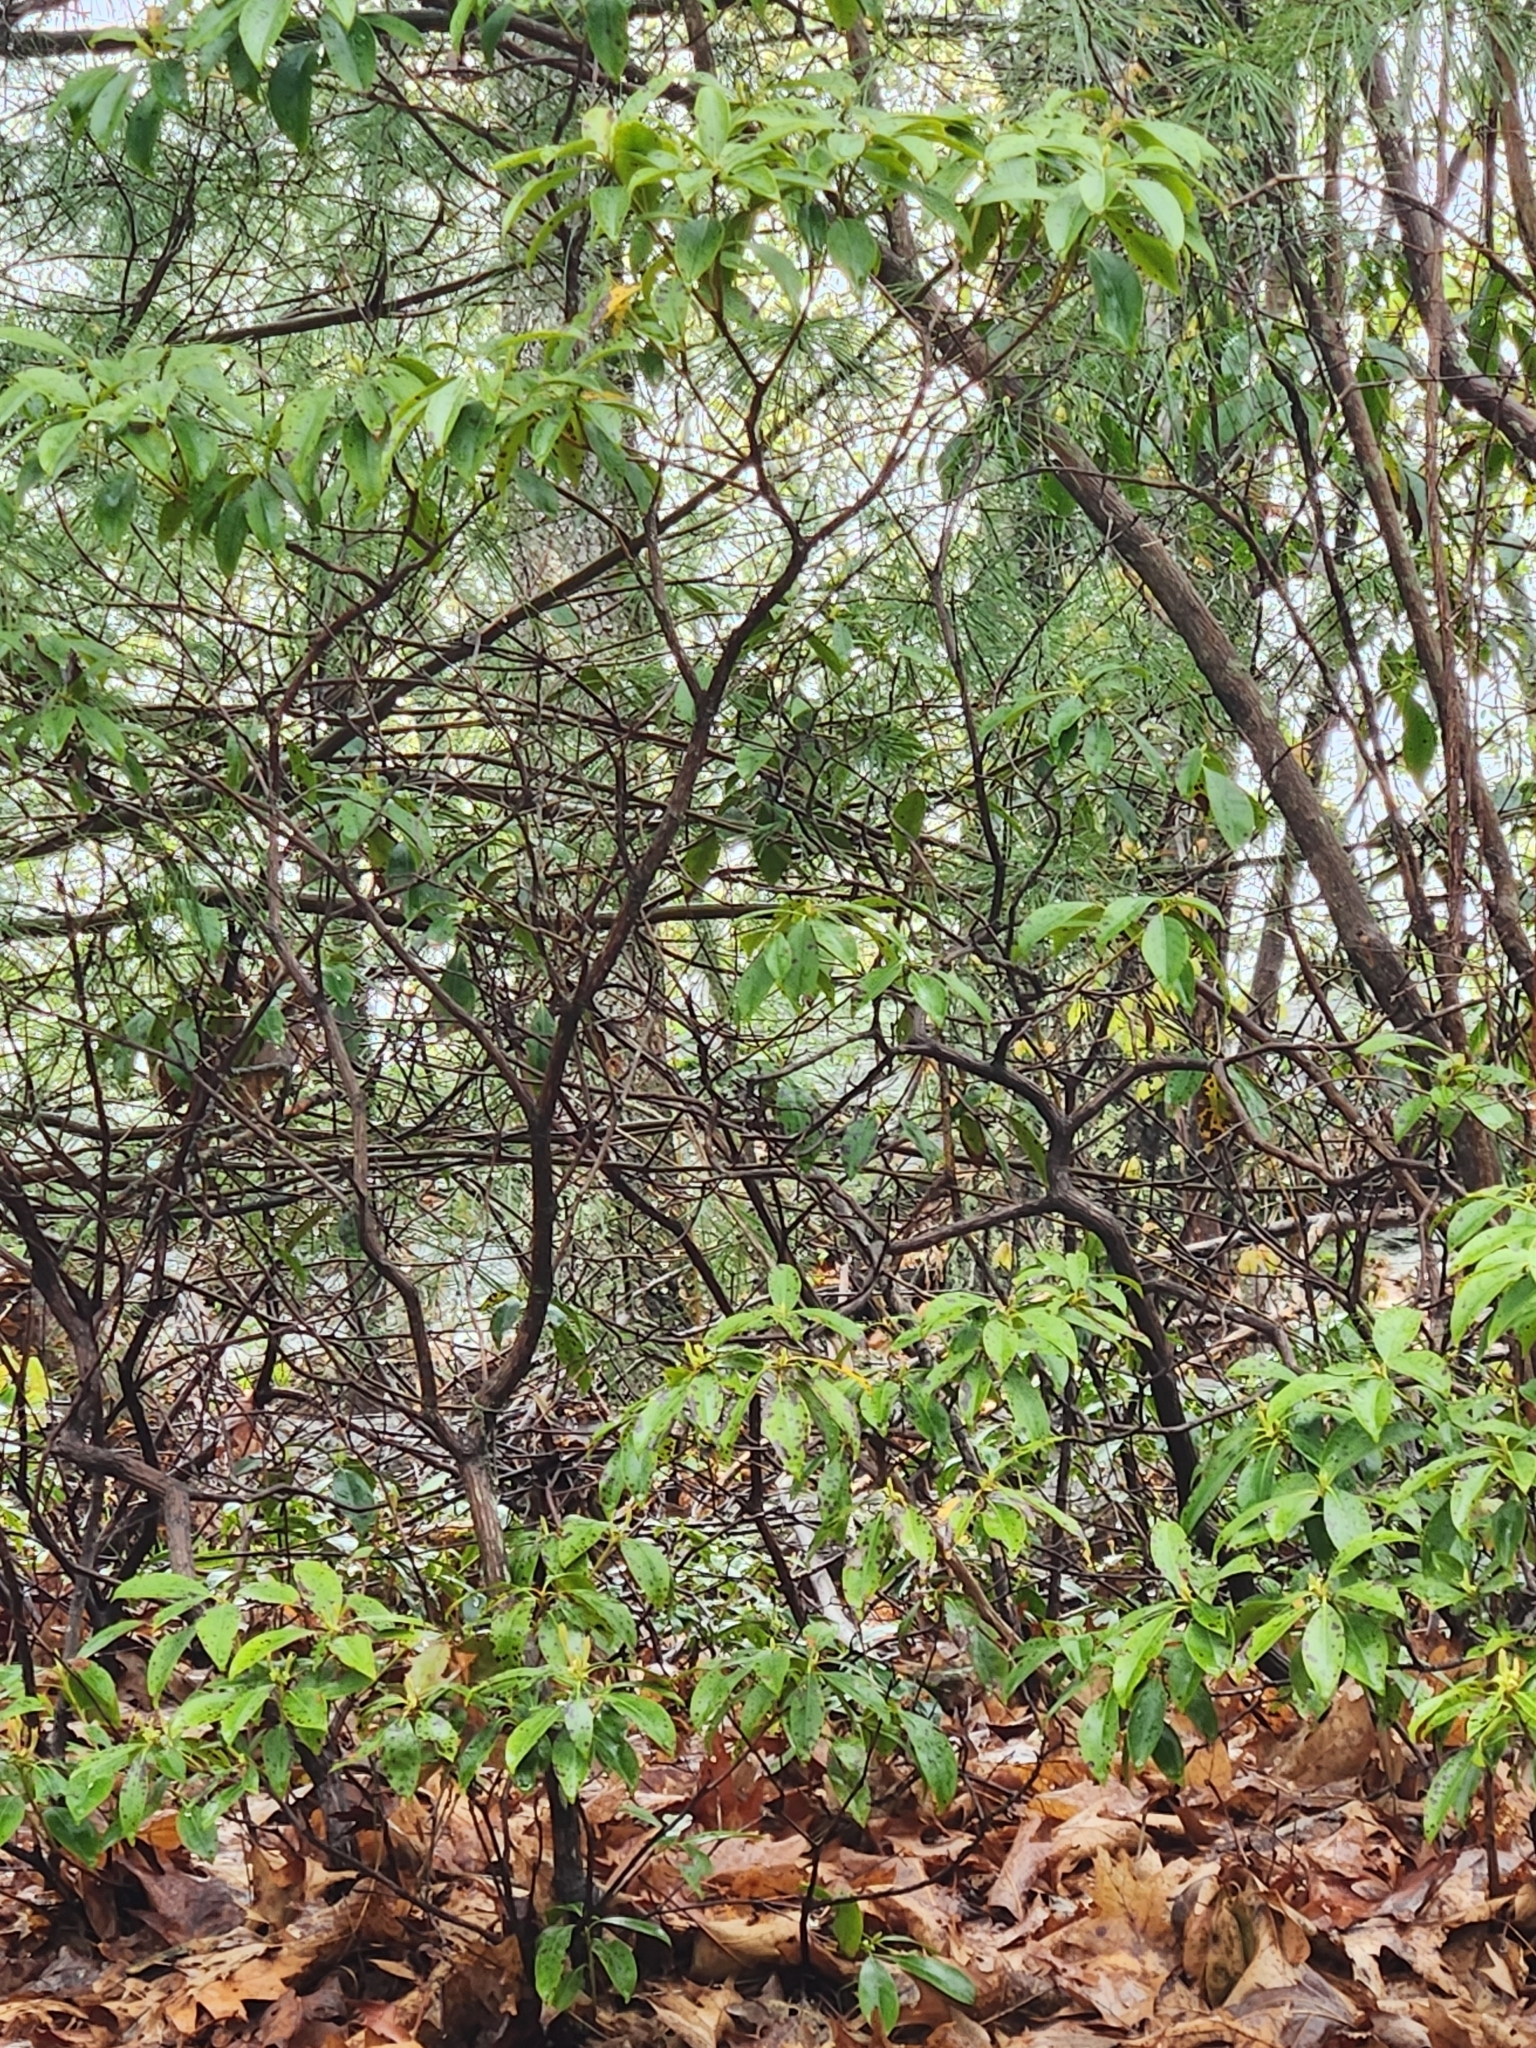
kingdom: Plantae
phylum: Tracheophyta
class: Magnoliopsida
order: Ericales
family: Ericaceae
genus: Kalmia
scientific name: Kalmia latifolia
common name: Mountain-laurel
